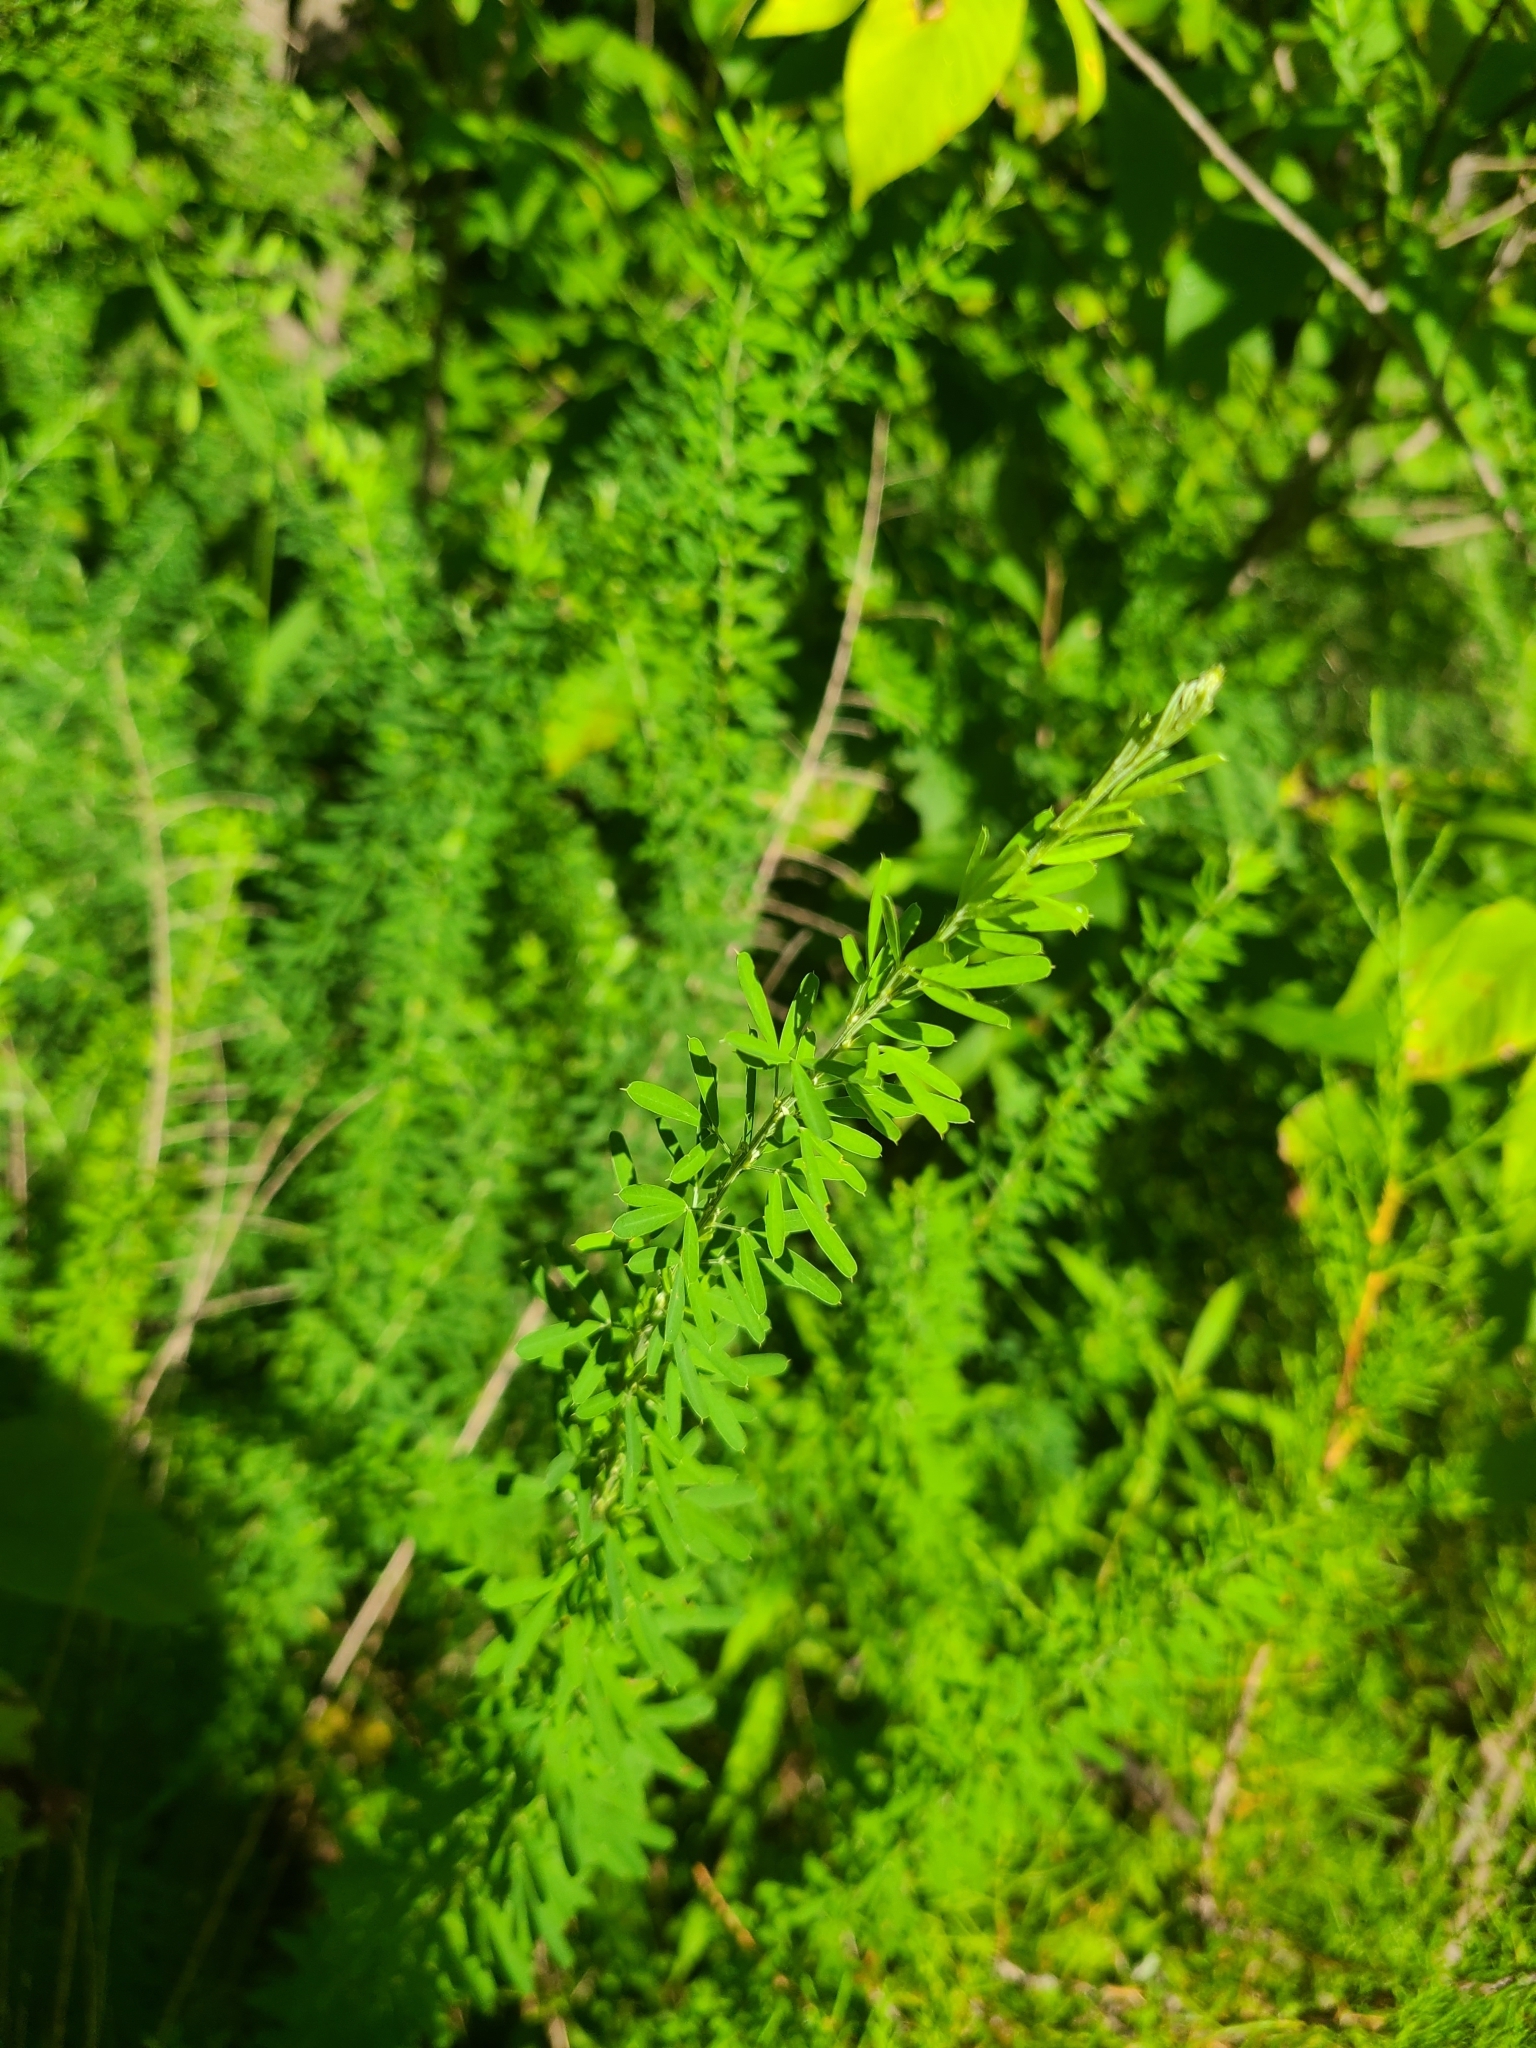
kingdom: Plantae
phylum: Tracheophyta
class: Magnoliopsida
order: Fabales
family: Fabaceae
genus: Lespedeza
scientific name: Lespedeza cuneata
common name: Chinese bush-clover
